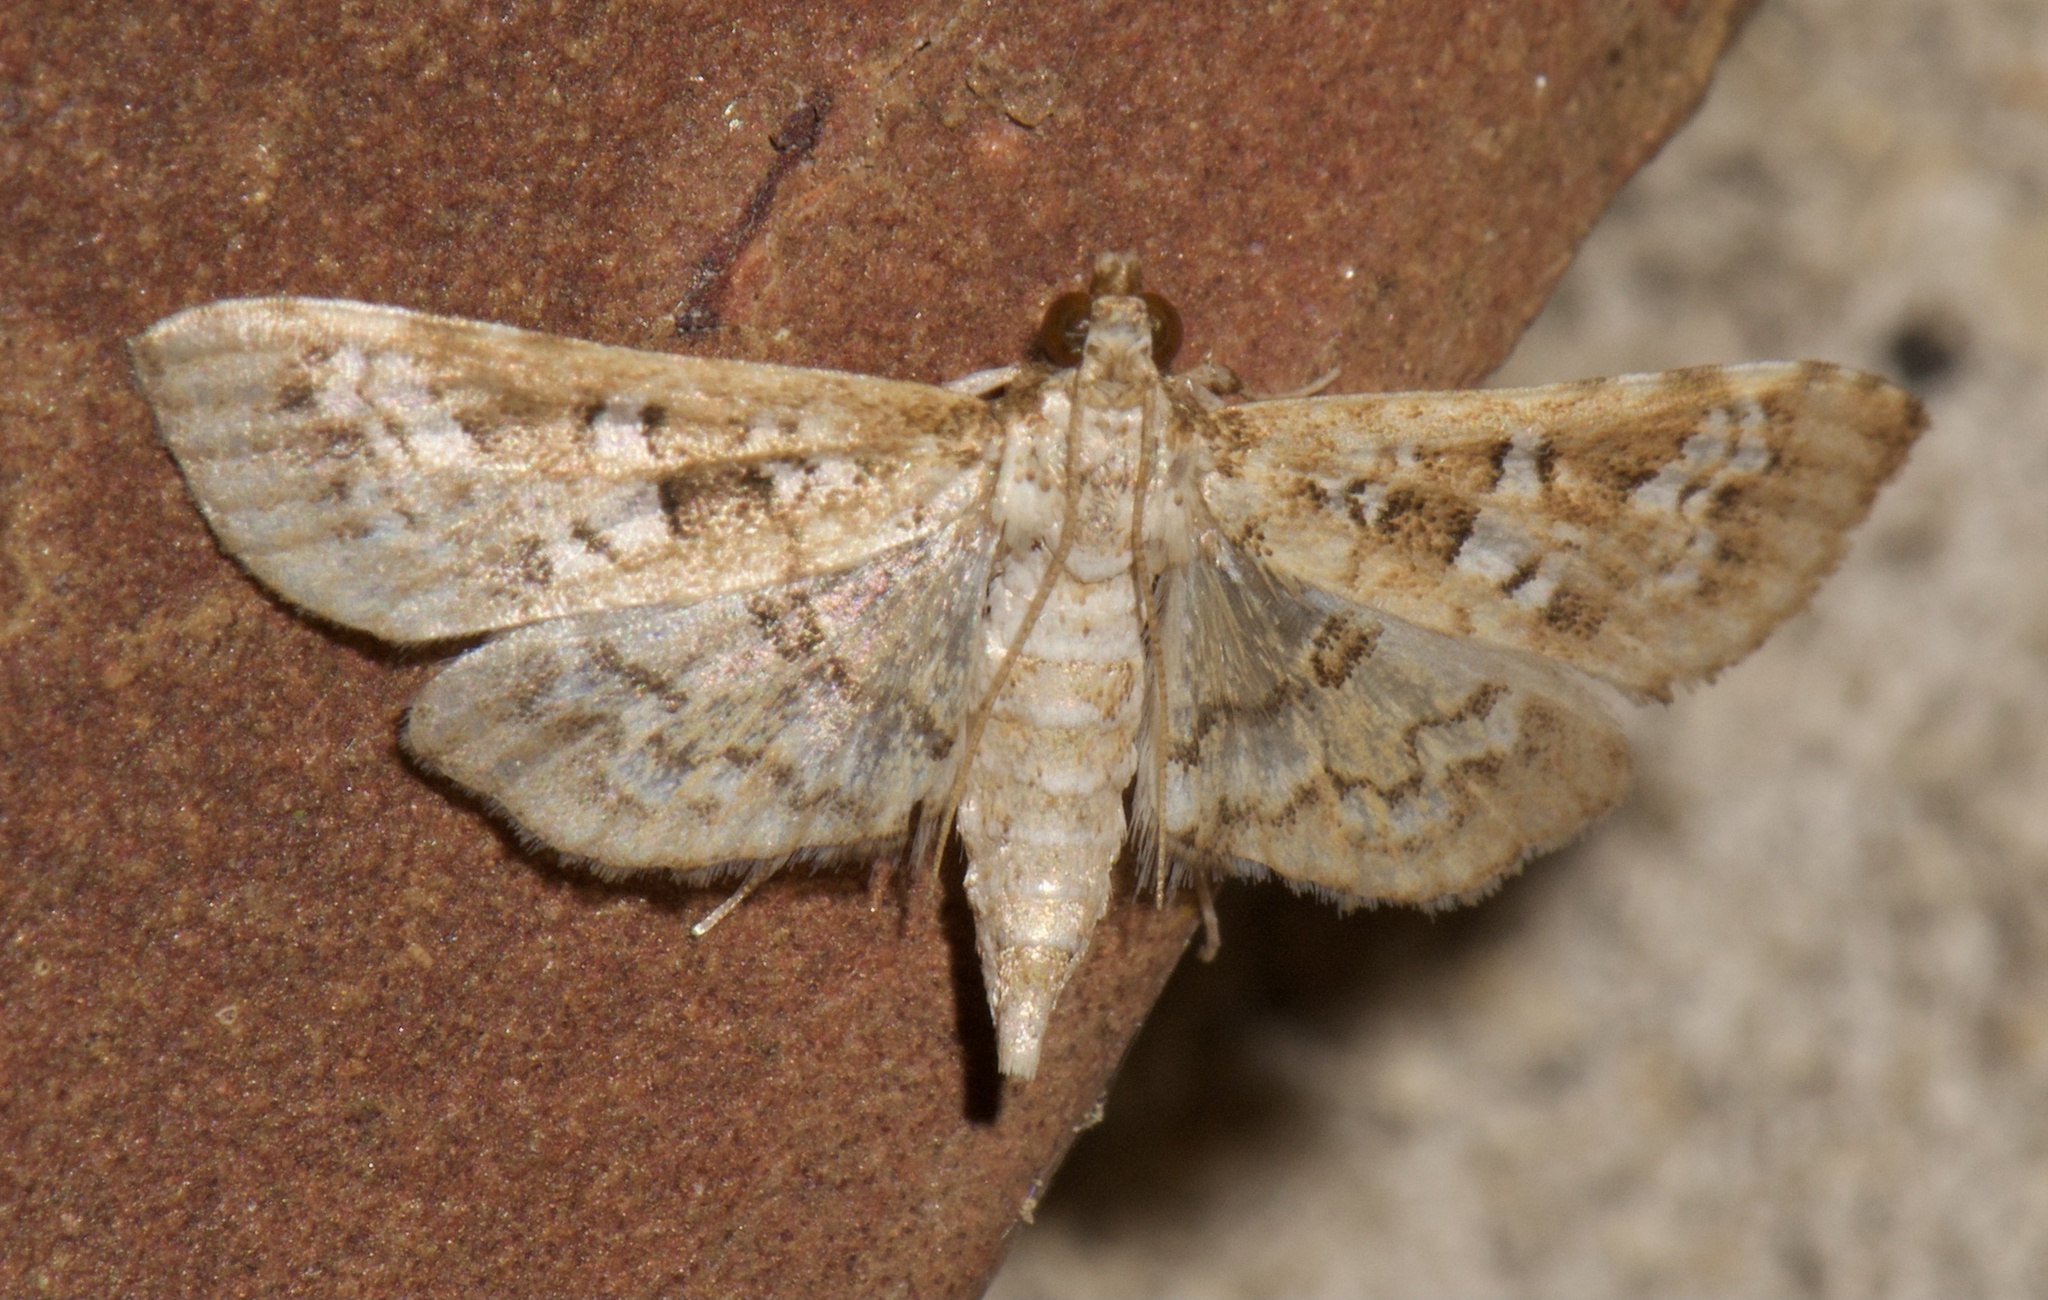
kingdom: Animalia
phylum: Arthropoda
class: Insecta
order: Lepidoptera
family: Crambidae
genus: Samea
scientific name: Samea multiplicalis
